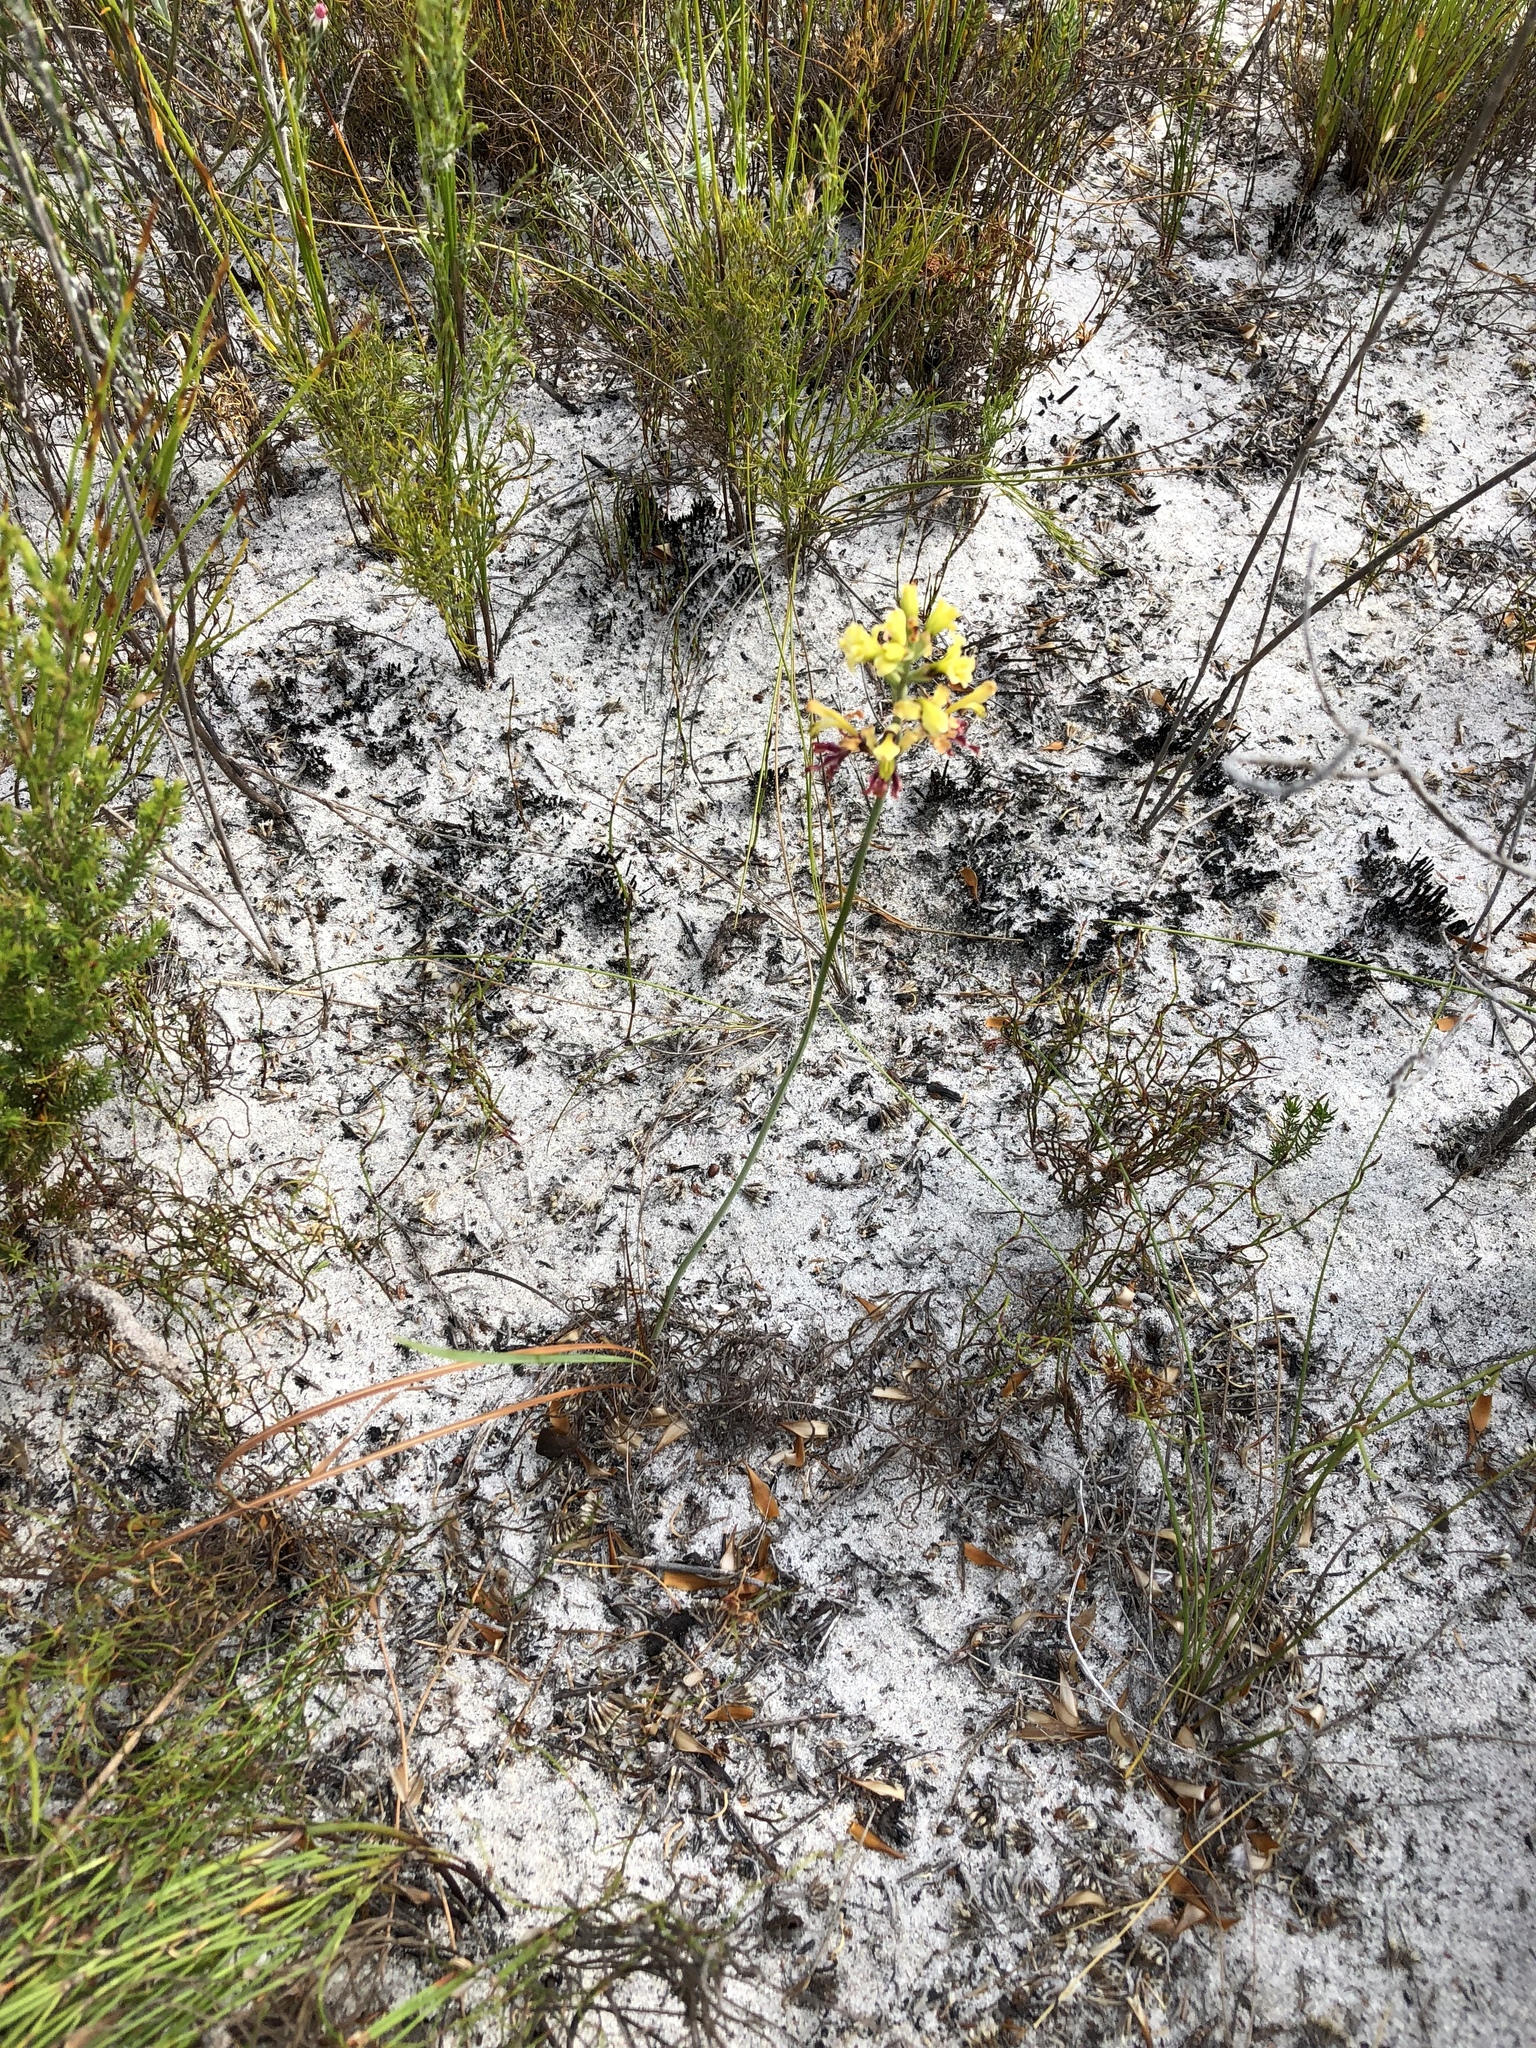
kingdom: Plantae
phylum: Tracheophyta
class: Liliopsida
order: Asparagales
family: Iridaceae
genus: Tritoniopsis
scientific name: Tritoniopsis parviflora
